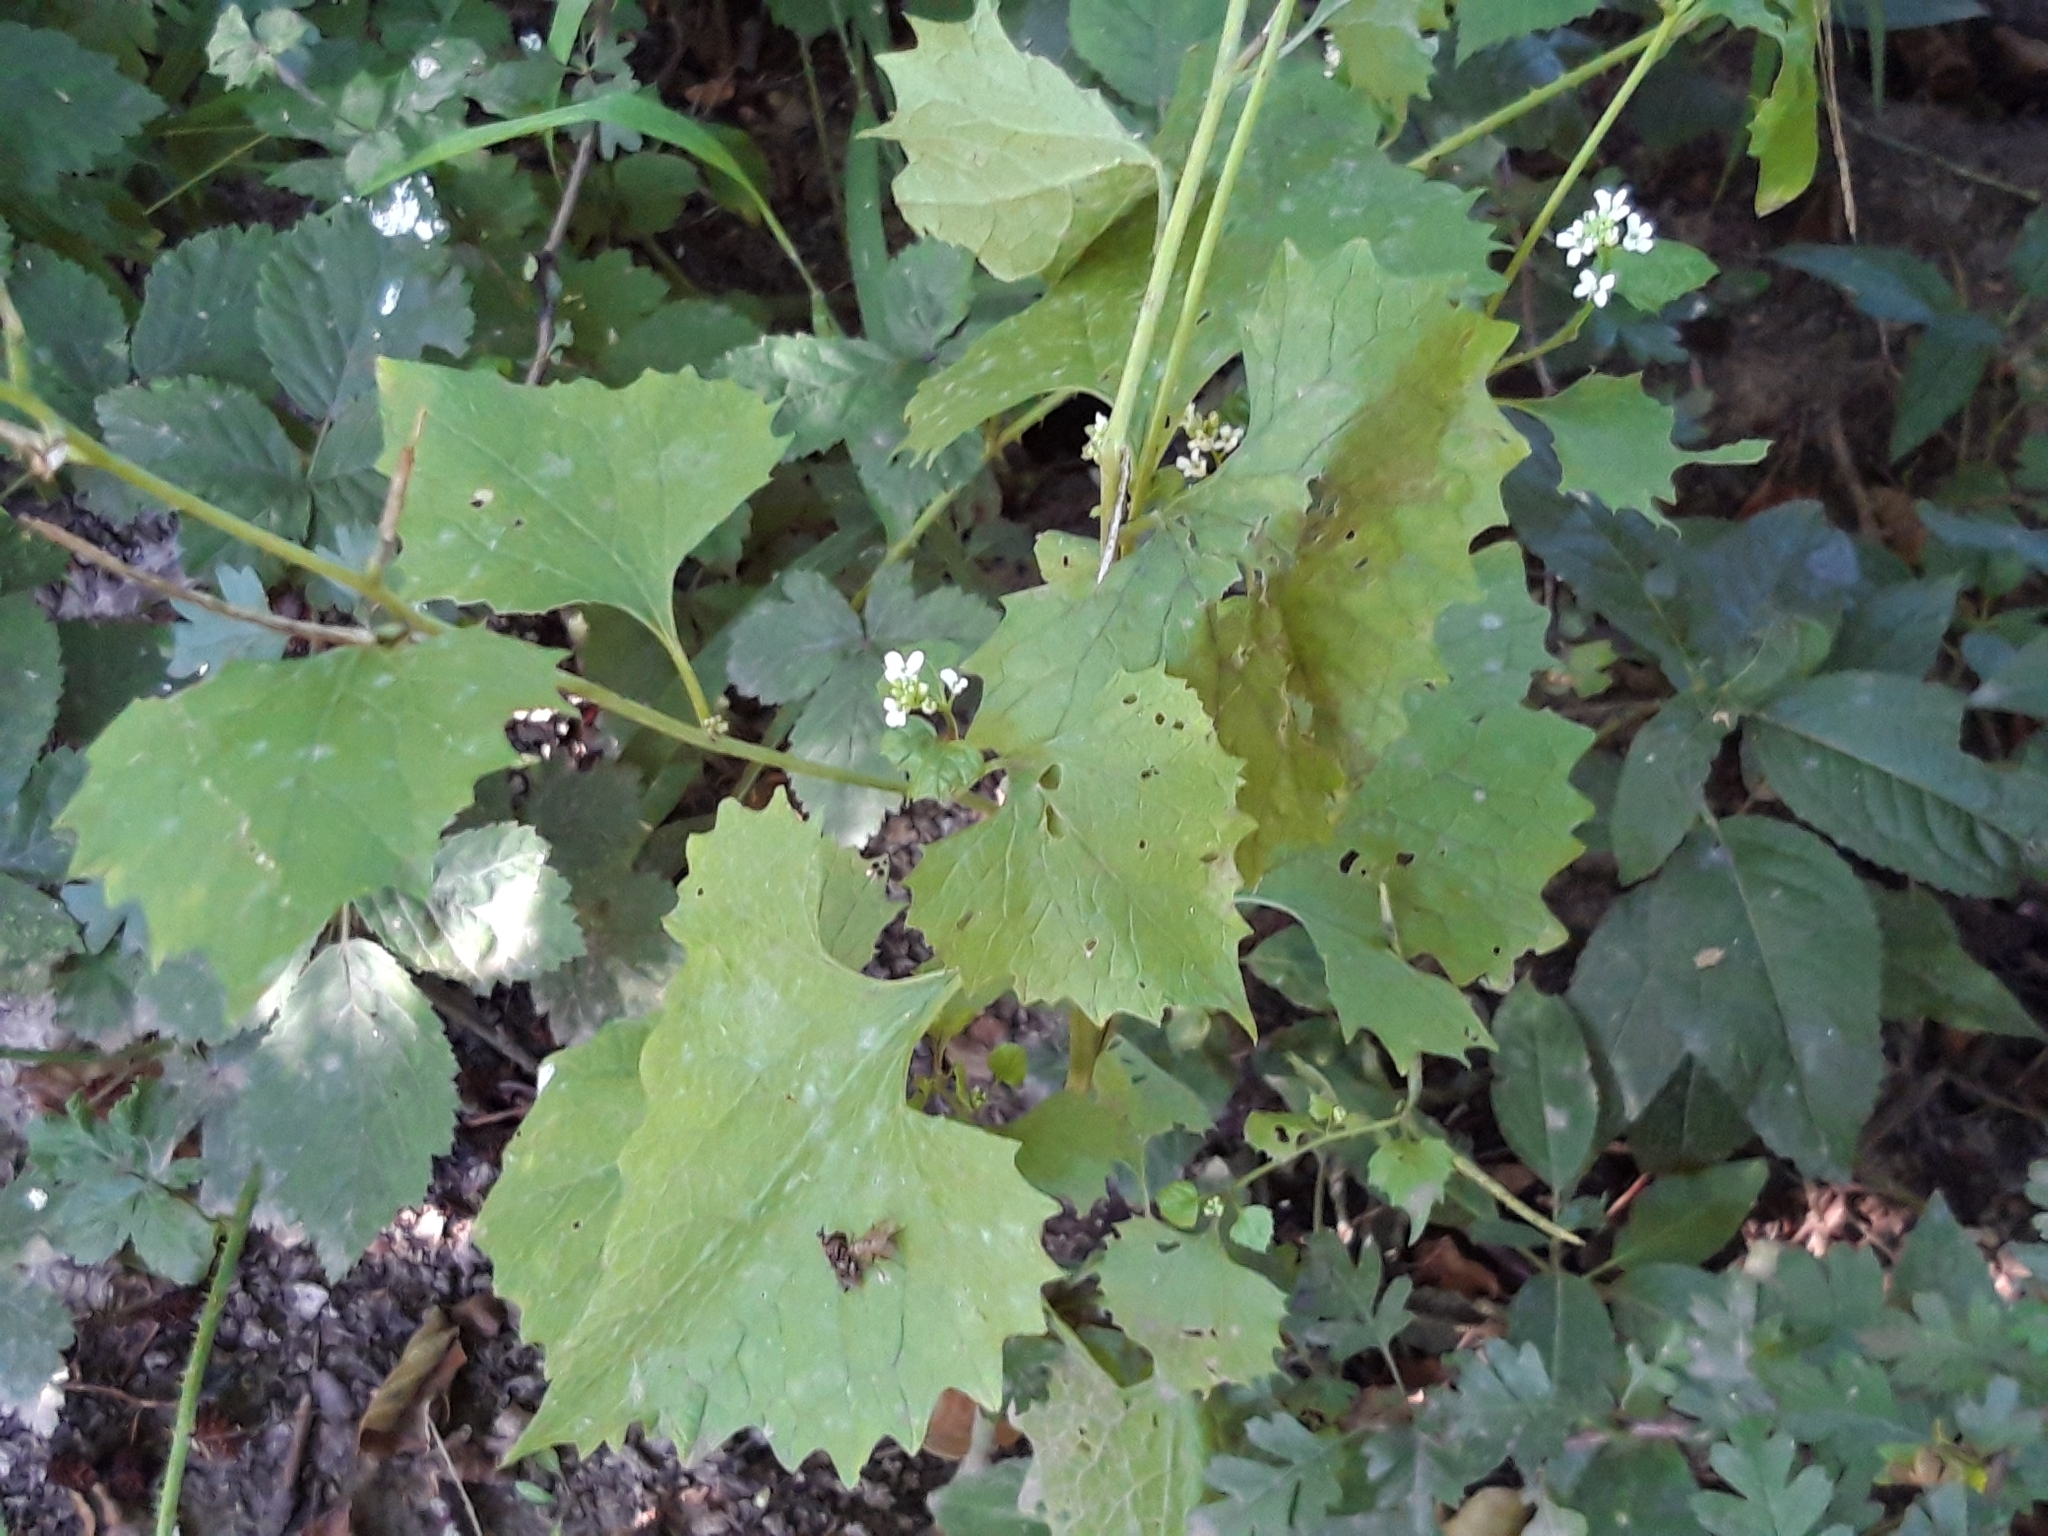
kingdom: Plantae
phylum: Tracheophyta
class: Magnoliopsida
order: Brassicales
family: Brassicaceae
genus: Alliaria
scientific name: Alliaria petiolata
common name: Garlic mustard
